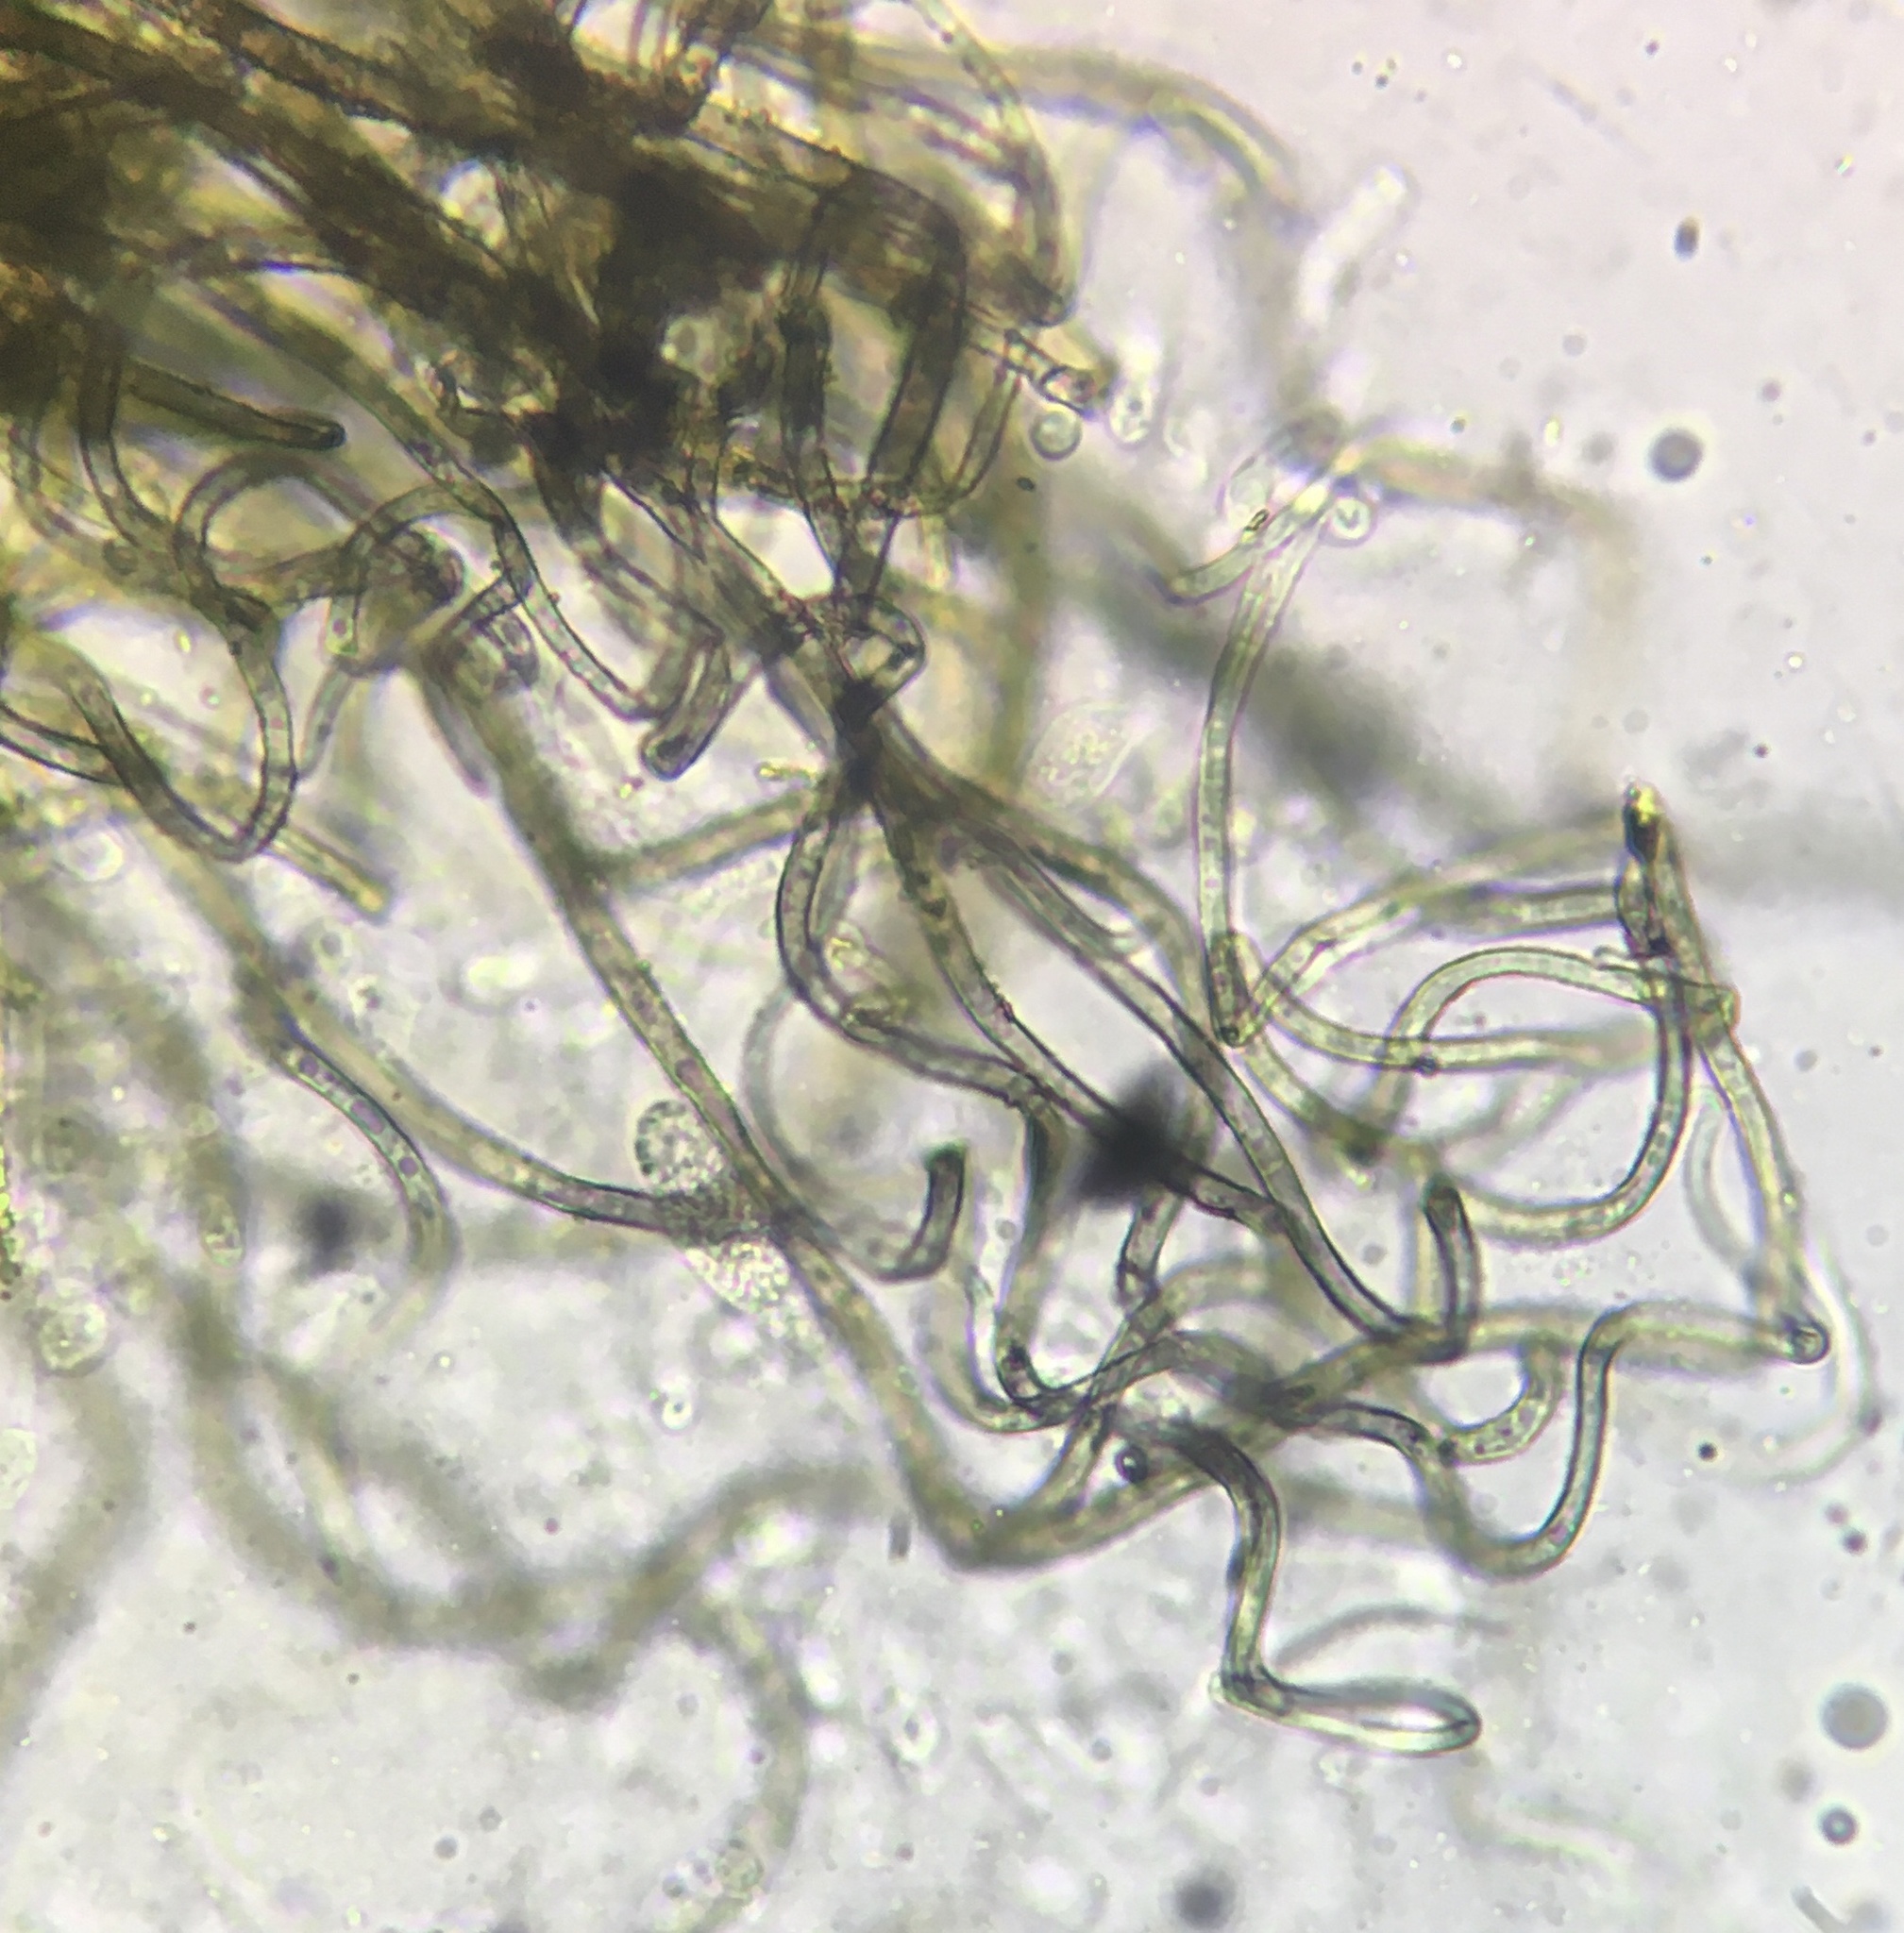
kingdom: Fungi
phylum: Ascomycota
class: Sordariomycetes
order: Sordariales
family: Chaetomiaceae
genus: Chaetomium
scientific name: Chaetomium globosum
